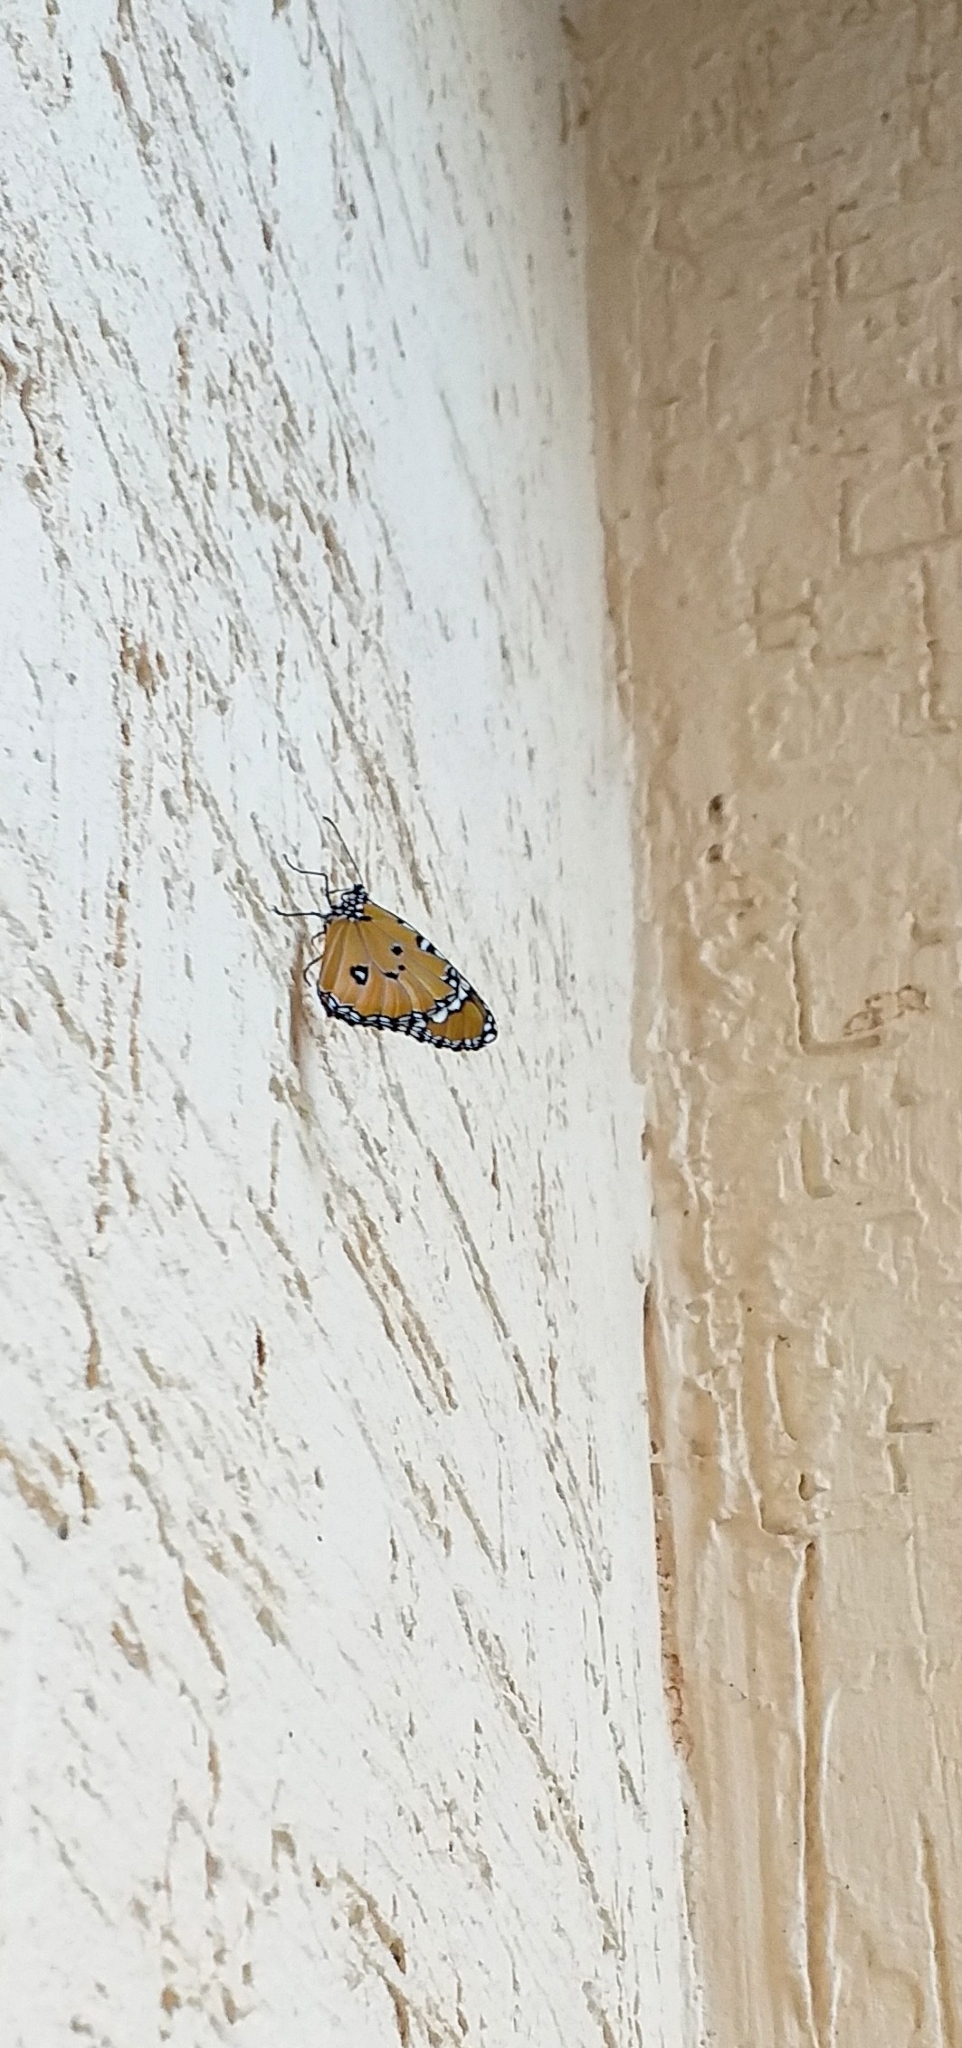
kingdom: Animalia
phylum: Arthropoda
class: Insecta
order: Lepidoptera
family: Nymphalidae
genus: Danaus
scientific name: Danaus chrysippus
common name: Plain tiger
